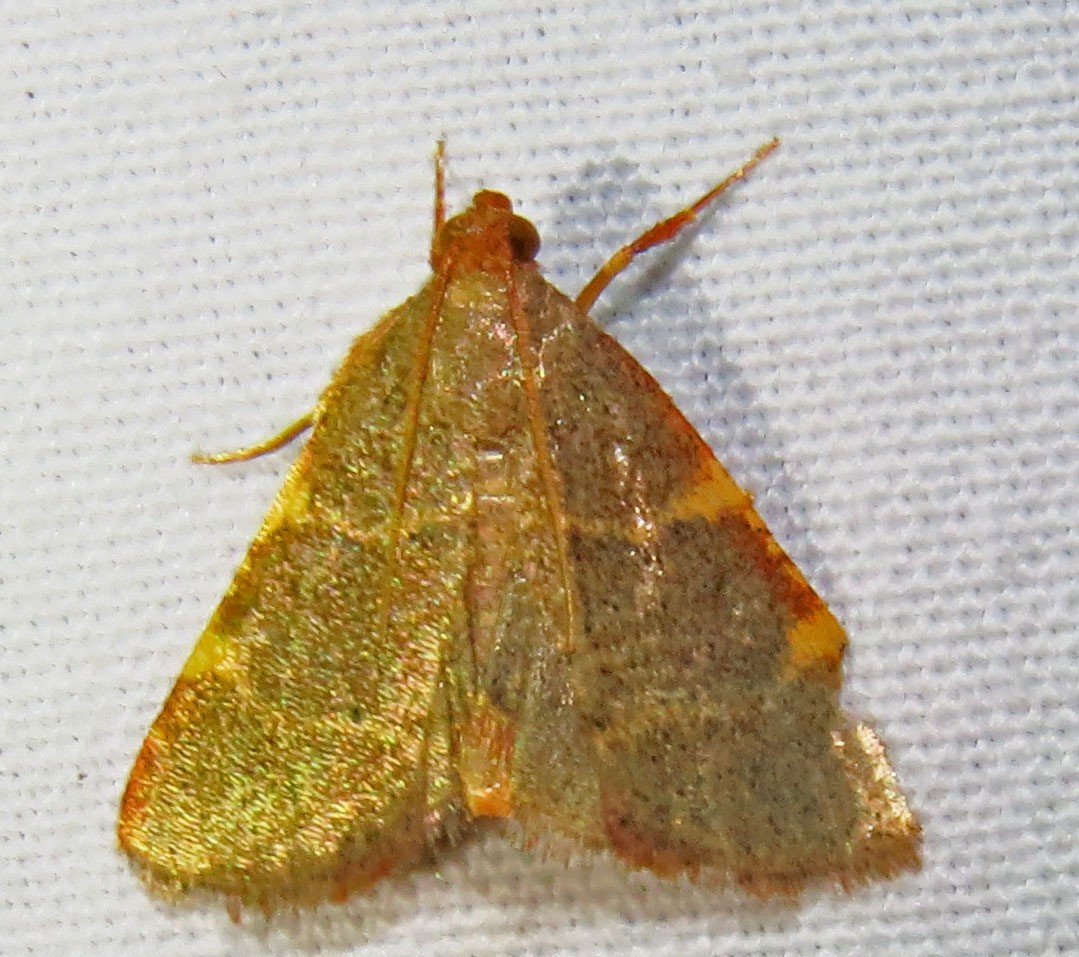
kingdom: Animalia
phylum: Arthropoda
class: Insecta
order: Lepidoptera
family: Pyralidae
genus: Hypsopygia
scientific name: Hypsopygia binodulalis
